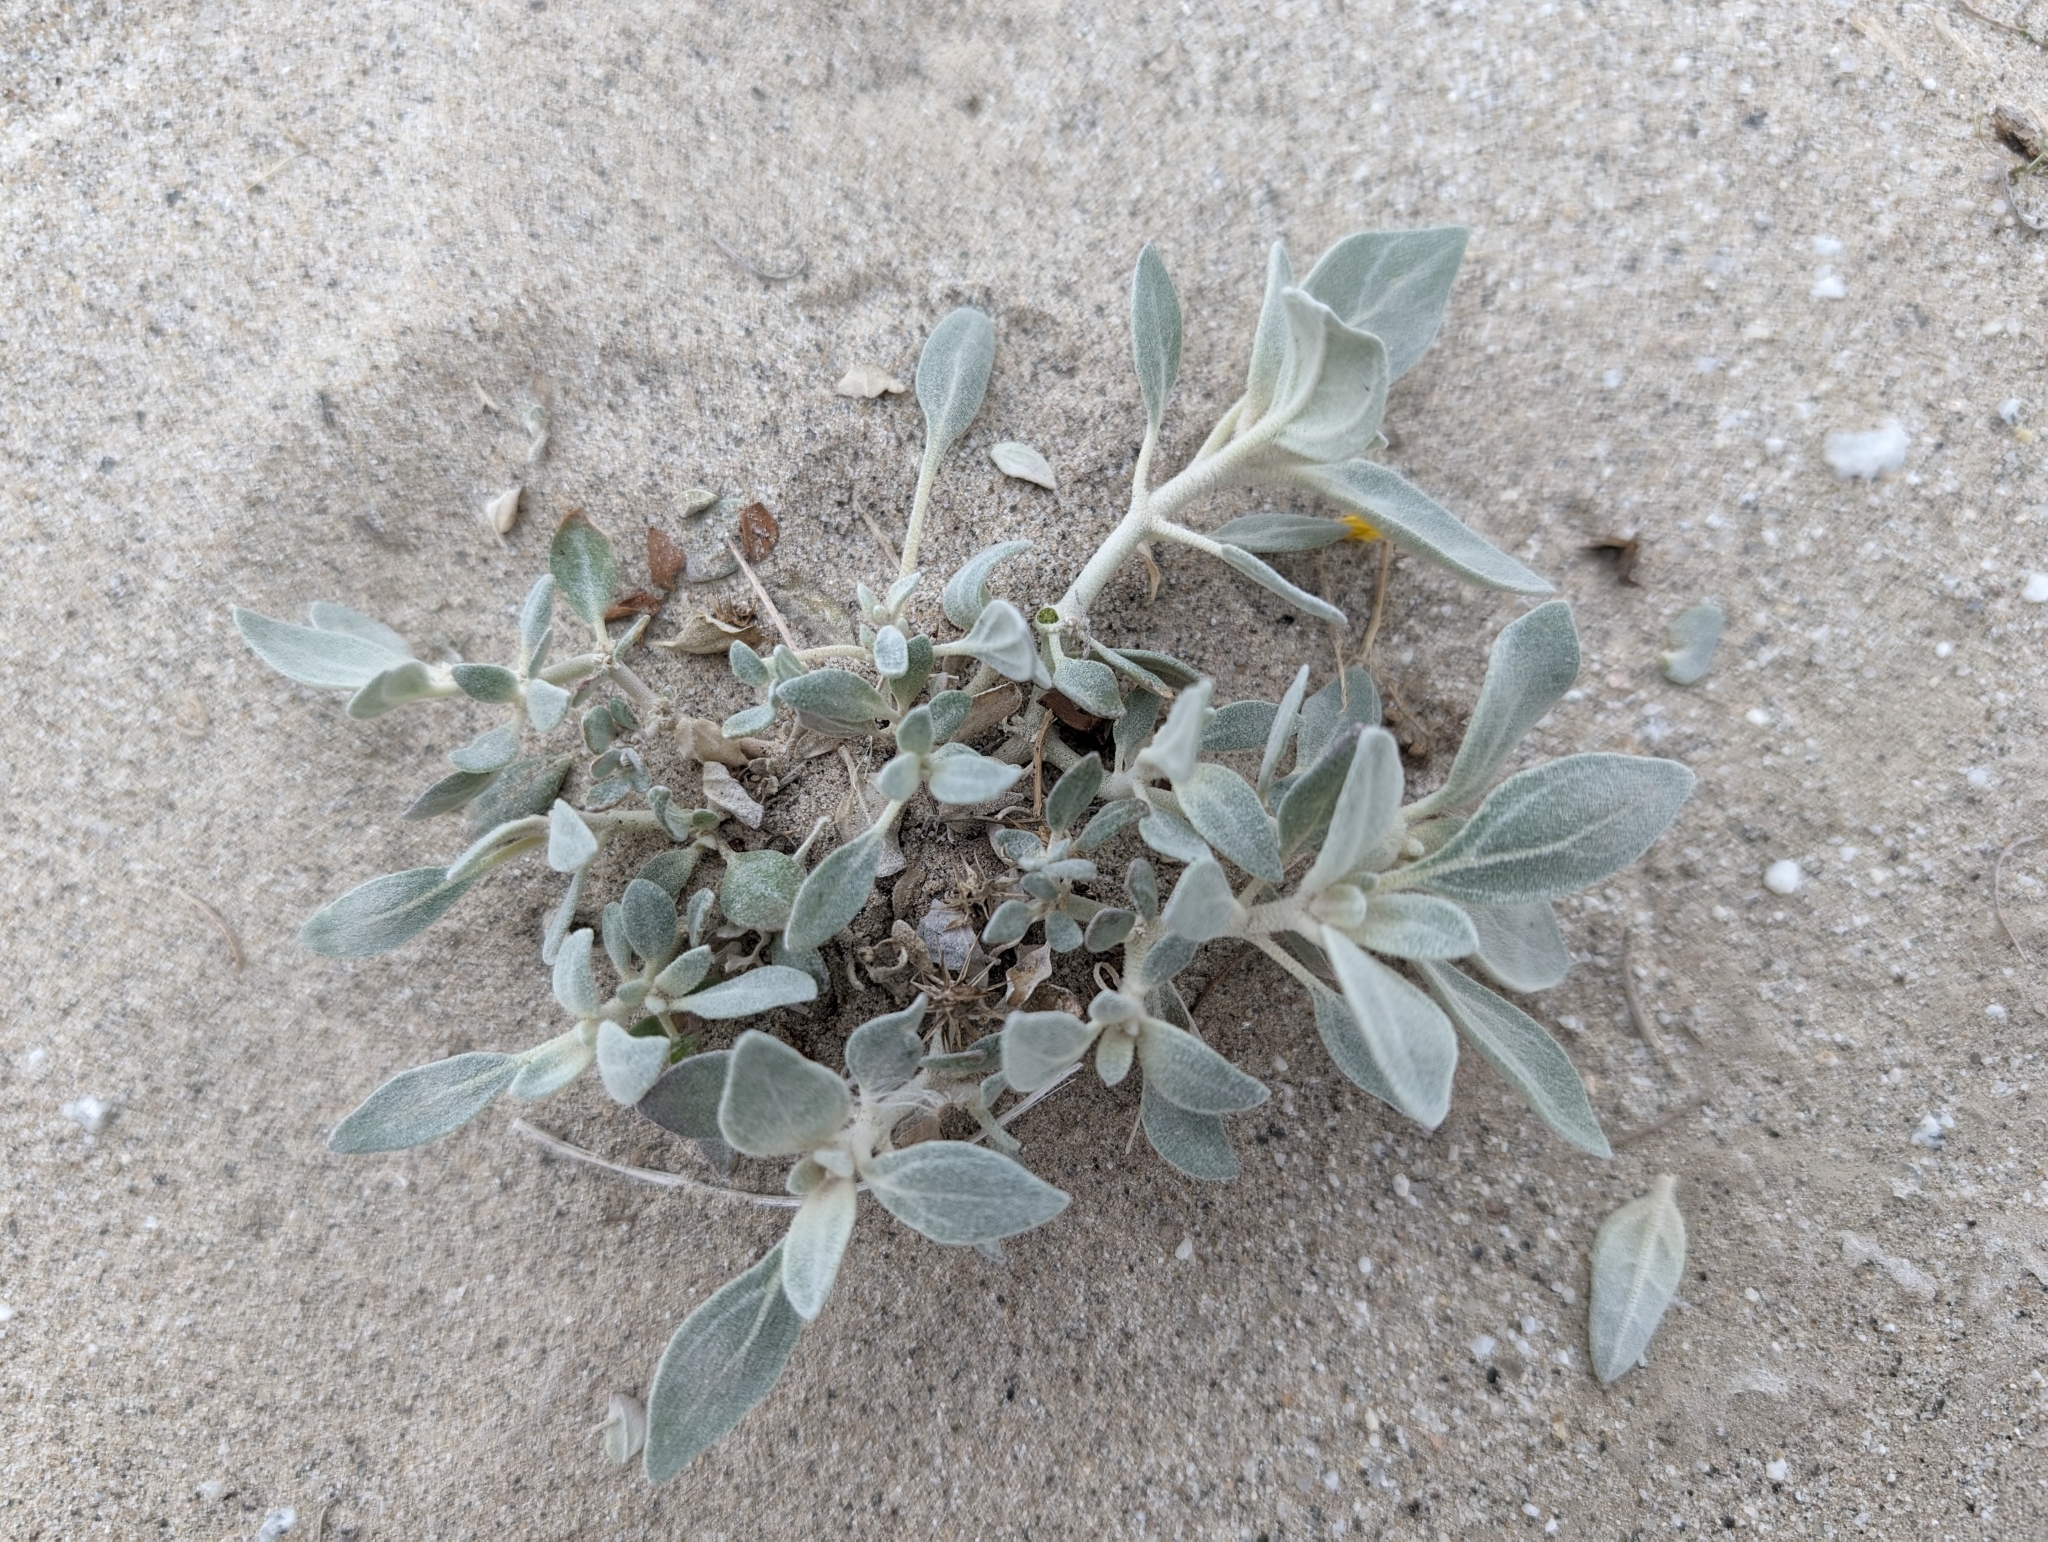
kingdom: Plantae
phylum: Tracheophyta
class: Magnoliopsida
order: Caryophyllales
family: Amaranthaceae
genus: Tidestromia
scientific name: Tidestromia suffruticosa
